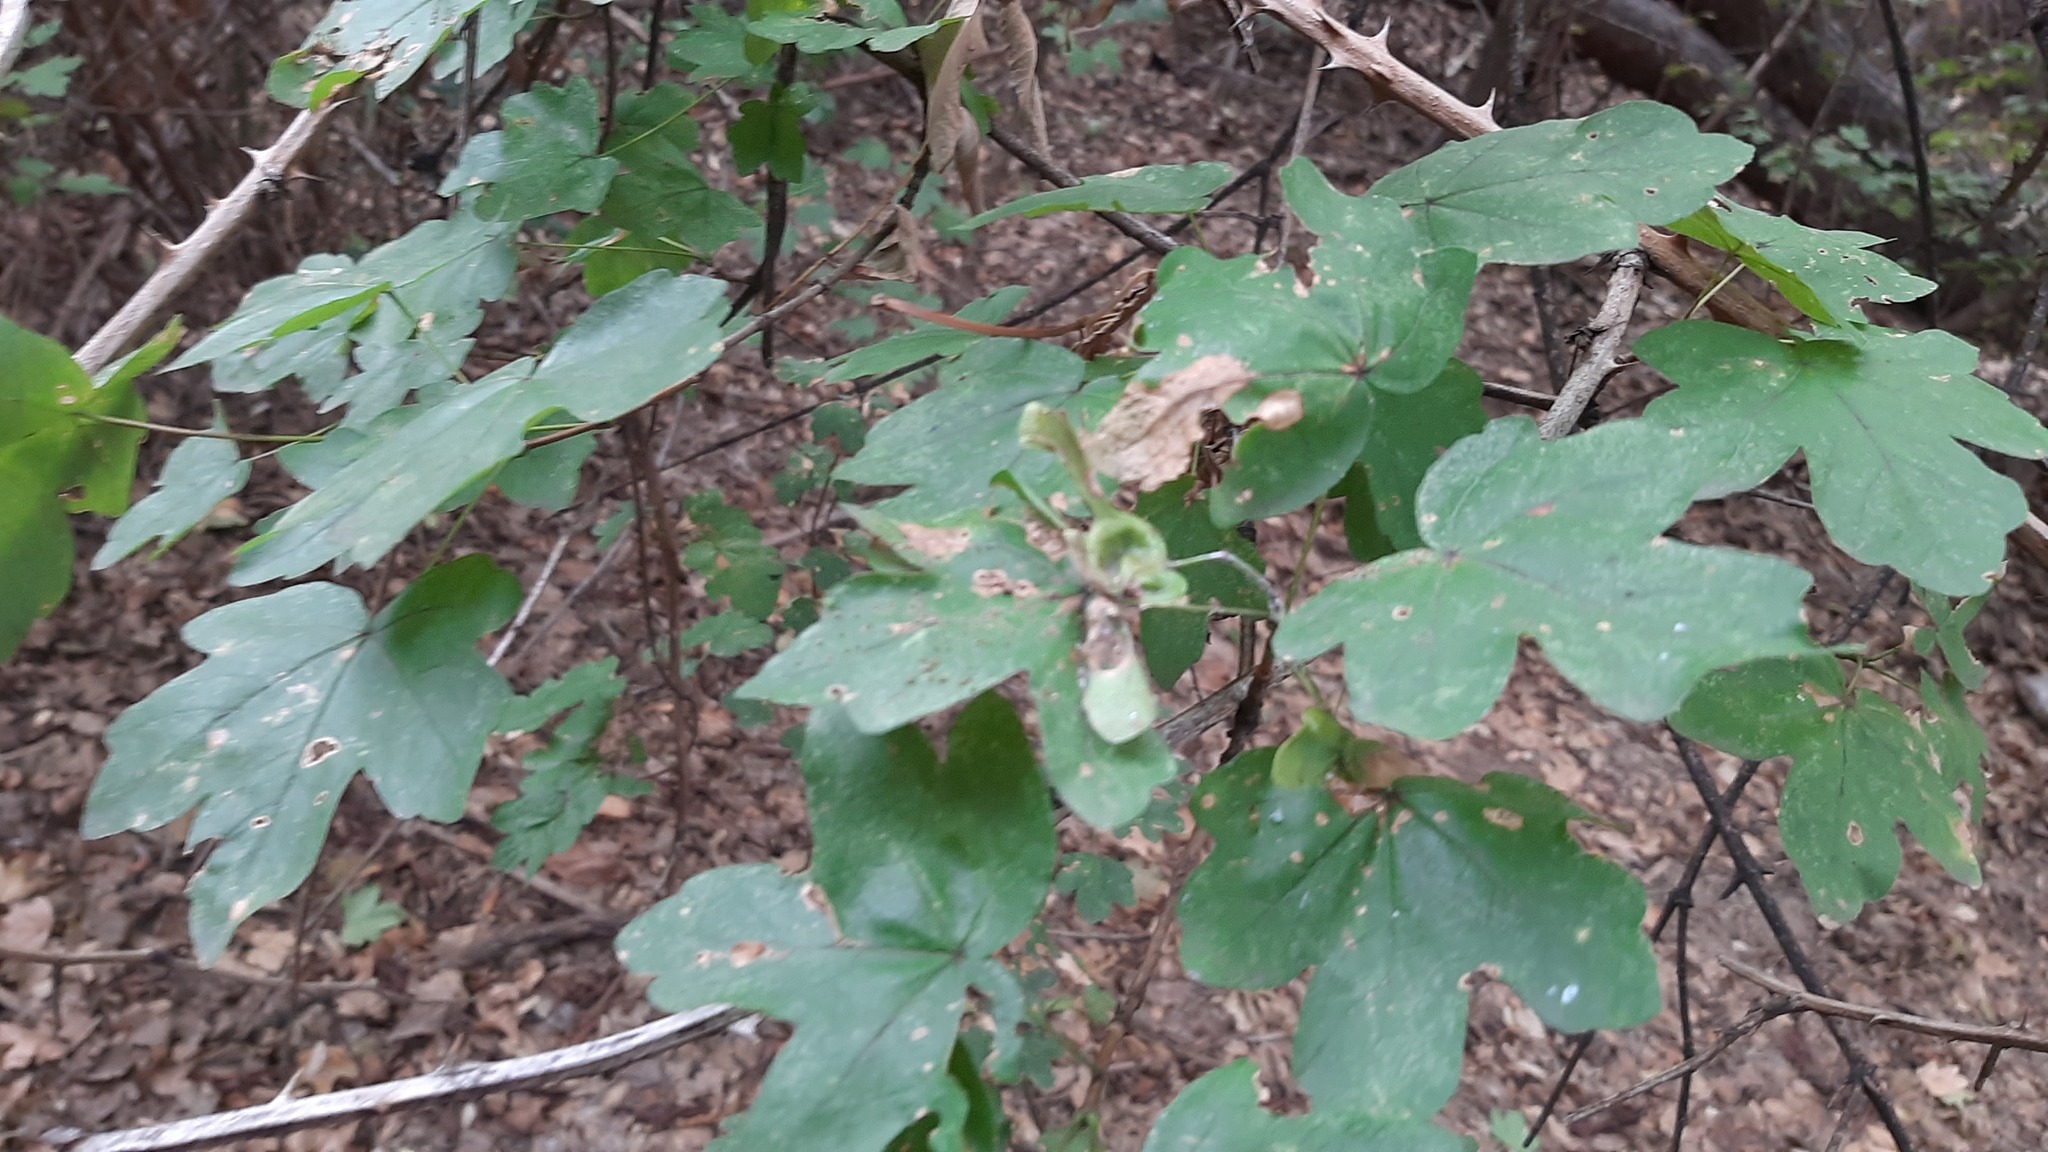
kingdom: Plantae
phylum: Tracheophyta
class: Magnoliopsida
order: Sapindales
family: Sapindaceae
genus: Acer
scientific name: Acer campestre
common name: Field maple
